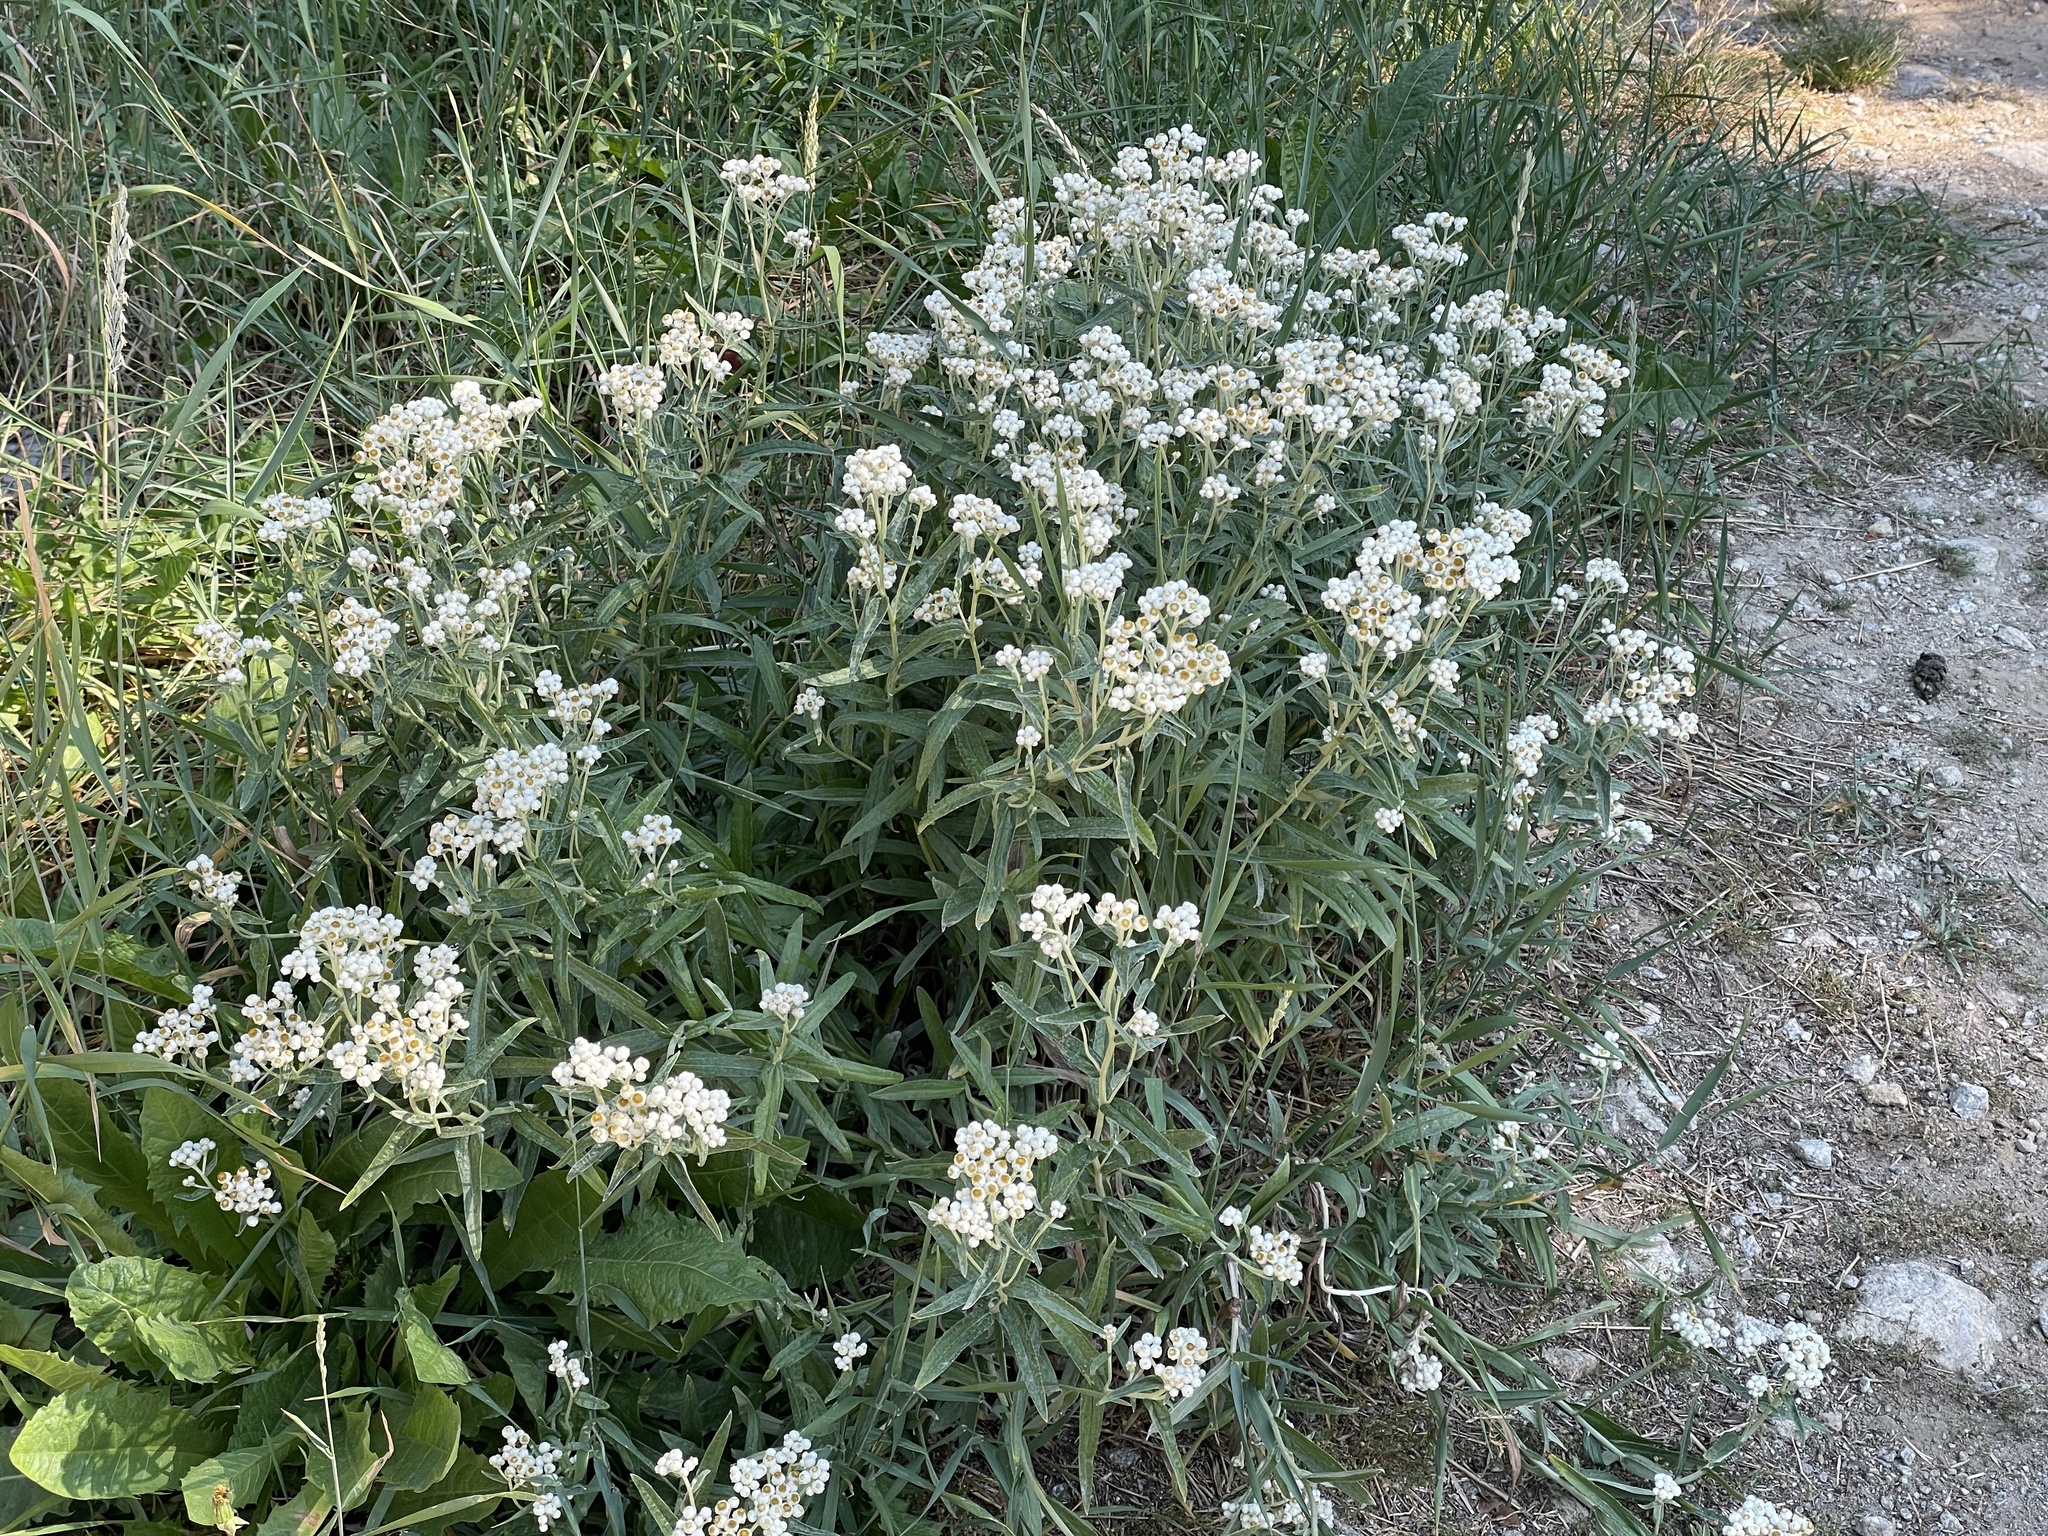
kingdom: Plantae
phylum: Tracheophyta
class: Magnoliopsida
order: Asterales
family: Asteraceae
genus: Anaphalis
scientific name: Anaphalis margaritacea
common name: Pearly everlasting
